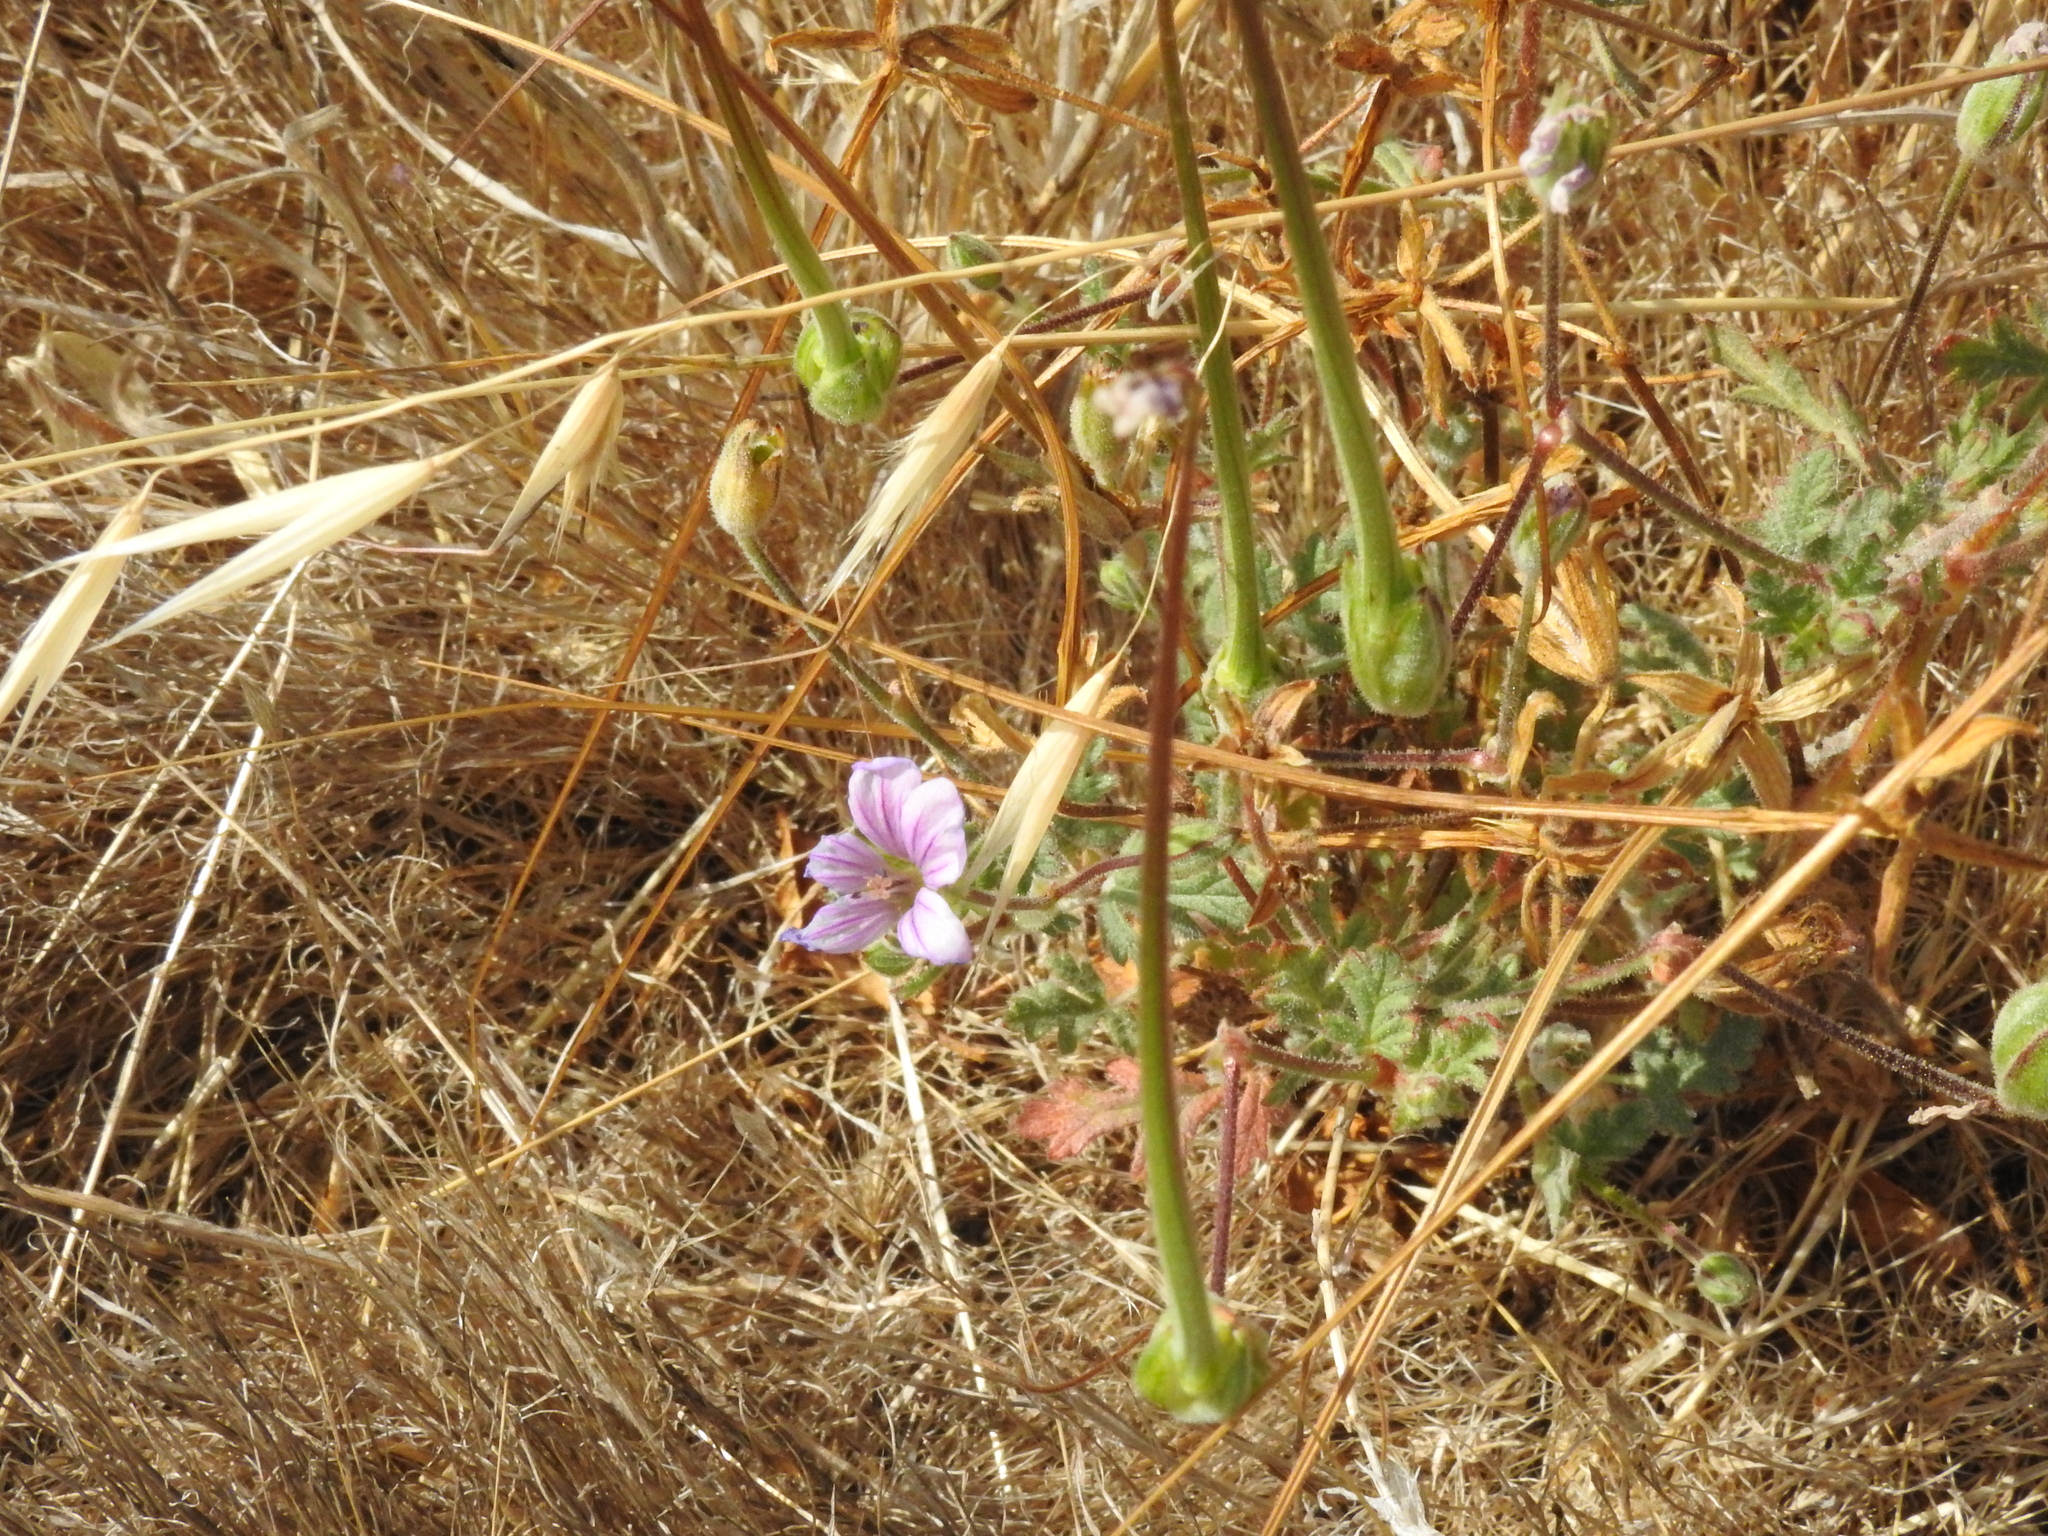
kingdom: Plantae
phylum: Tracheophyta
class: Magnoliopsida
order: Geraniales
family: Geraniaceae
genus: Erodium
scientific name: Erodium botrys
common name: Mediterranean stork's-bill
